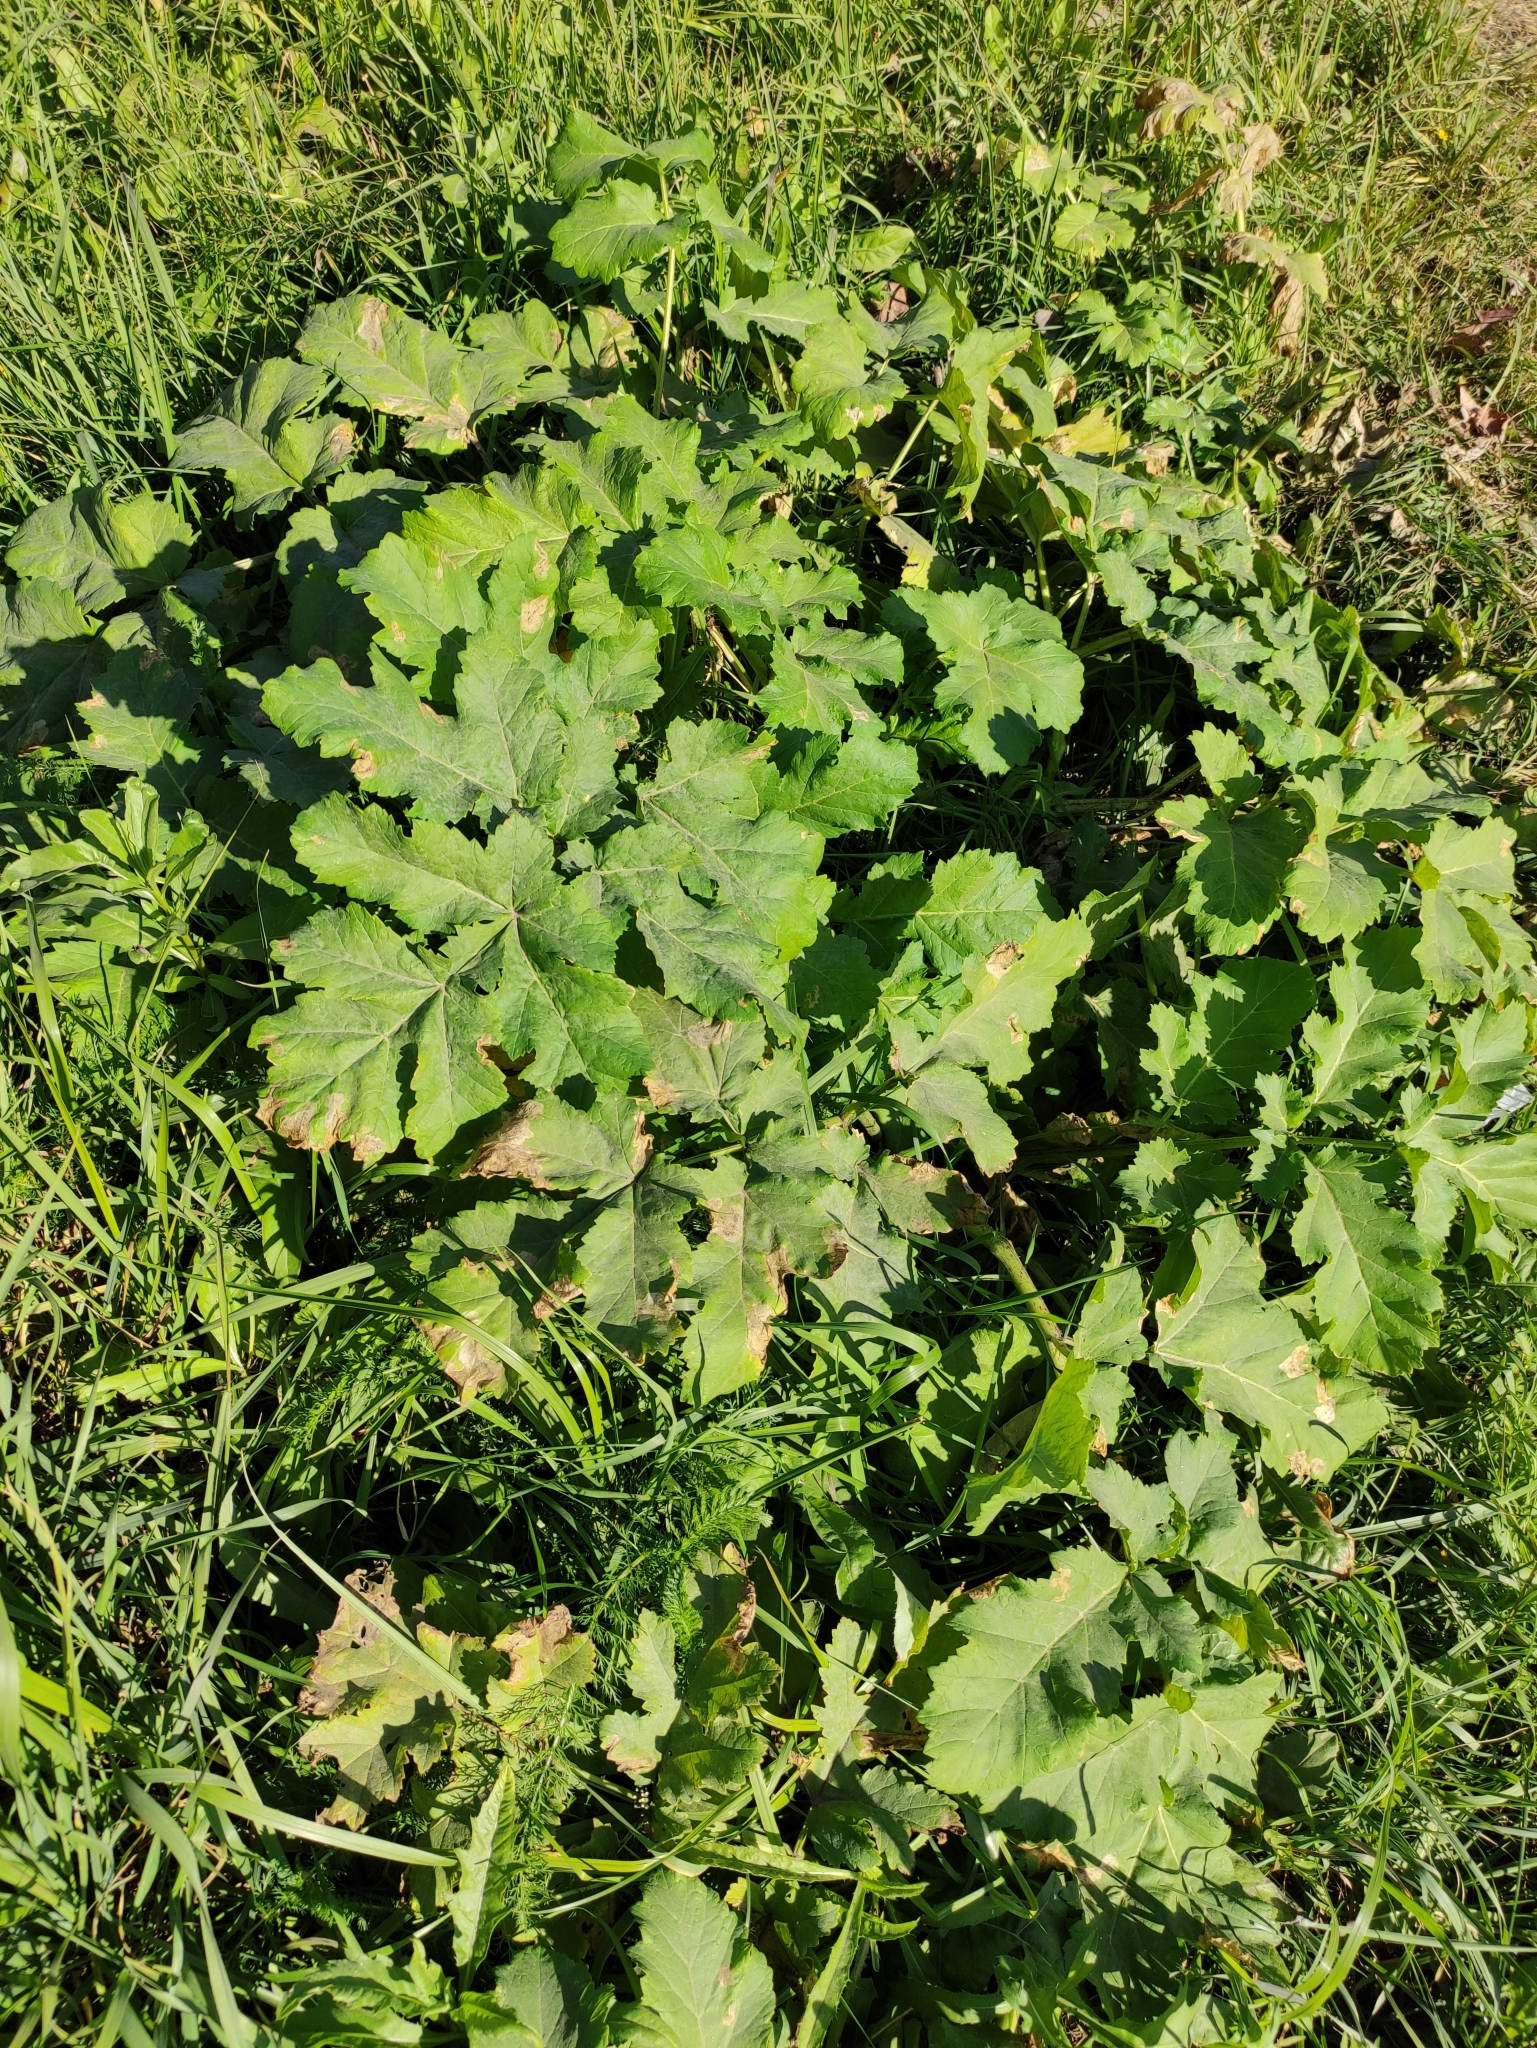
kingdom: Plantae
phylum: Tracheophyta
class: Magnoliopsida
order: Apiales
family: Apiaceae
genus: Heracleum
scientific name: Heracleum sosnowskyi
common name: Sosnowsky's hogweed
